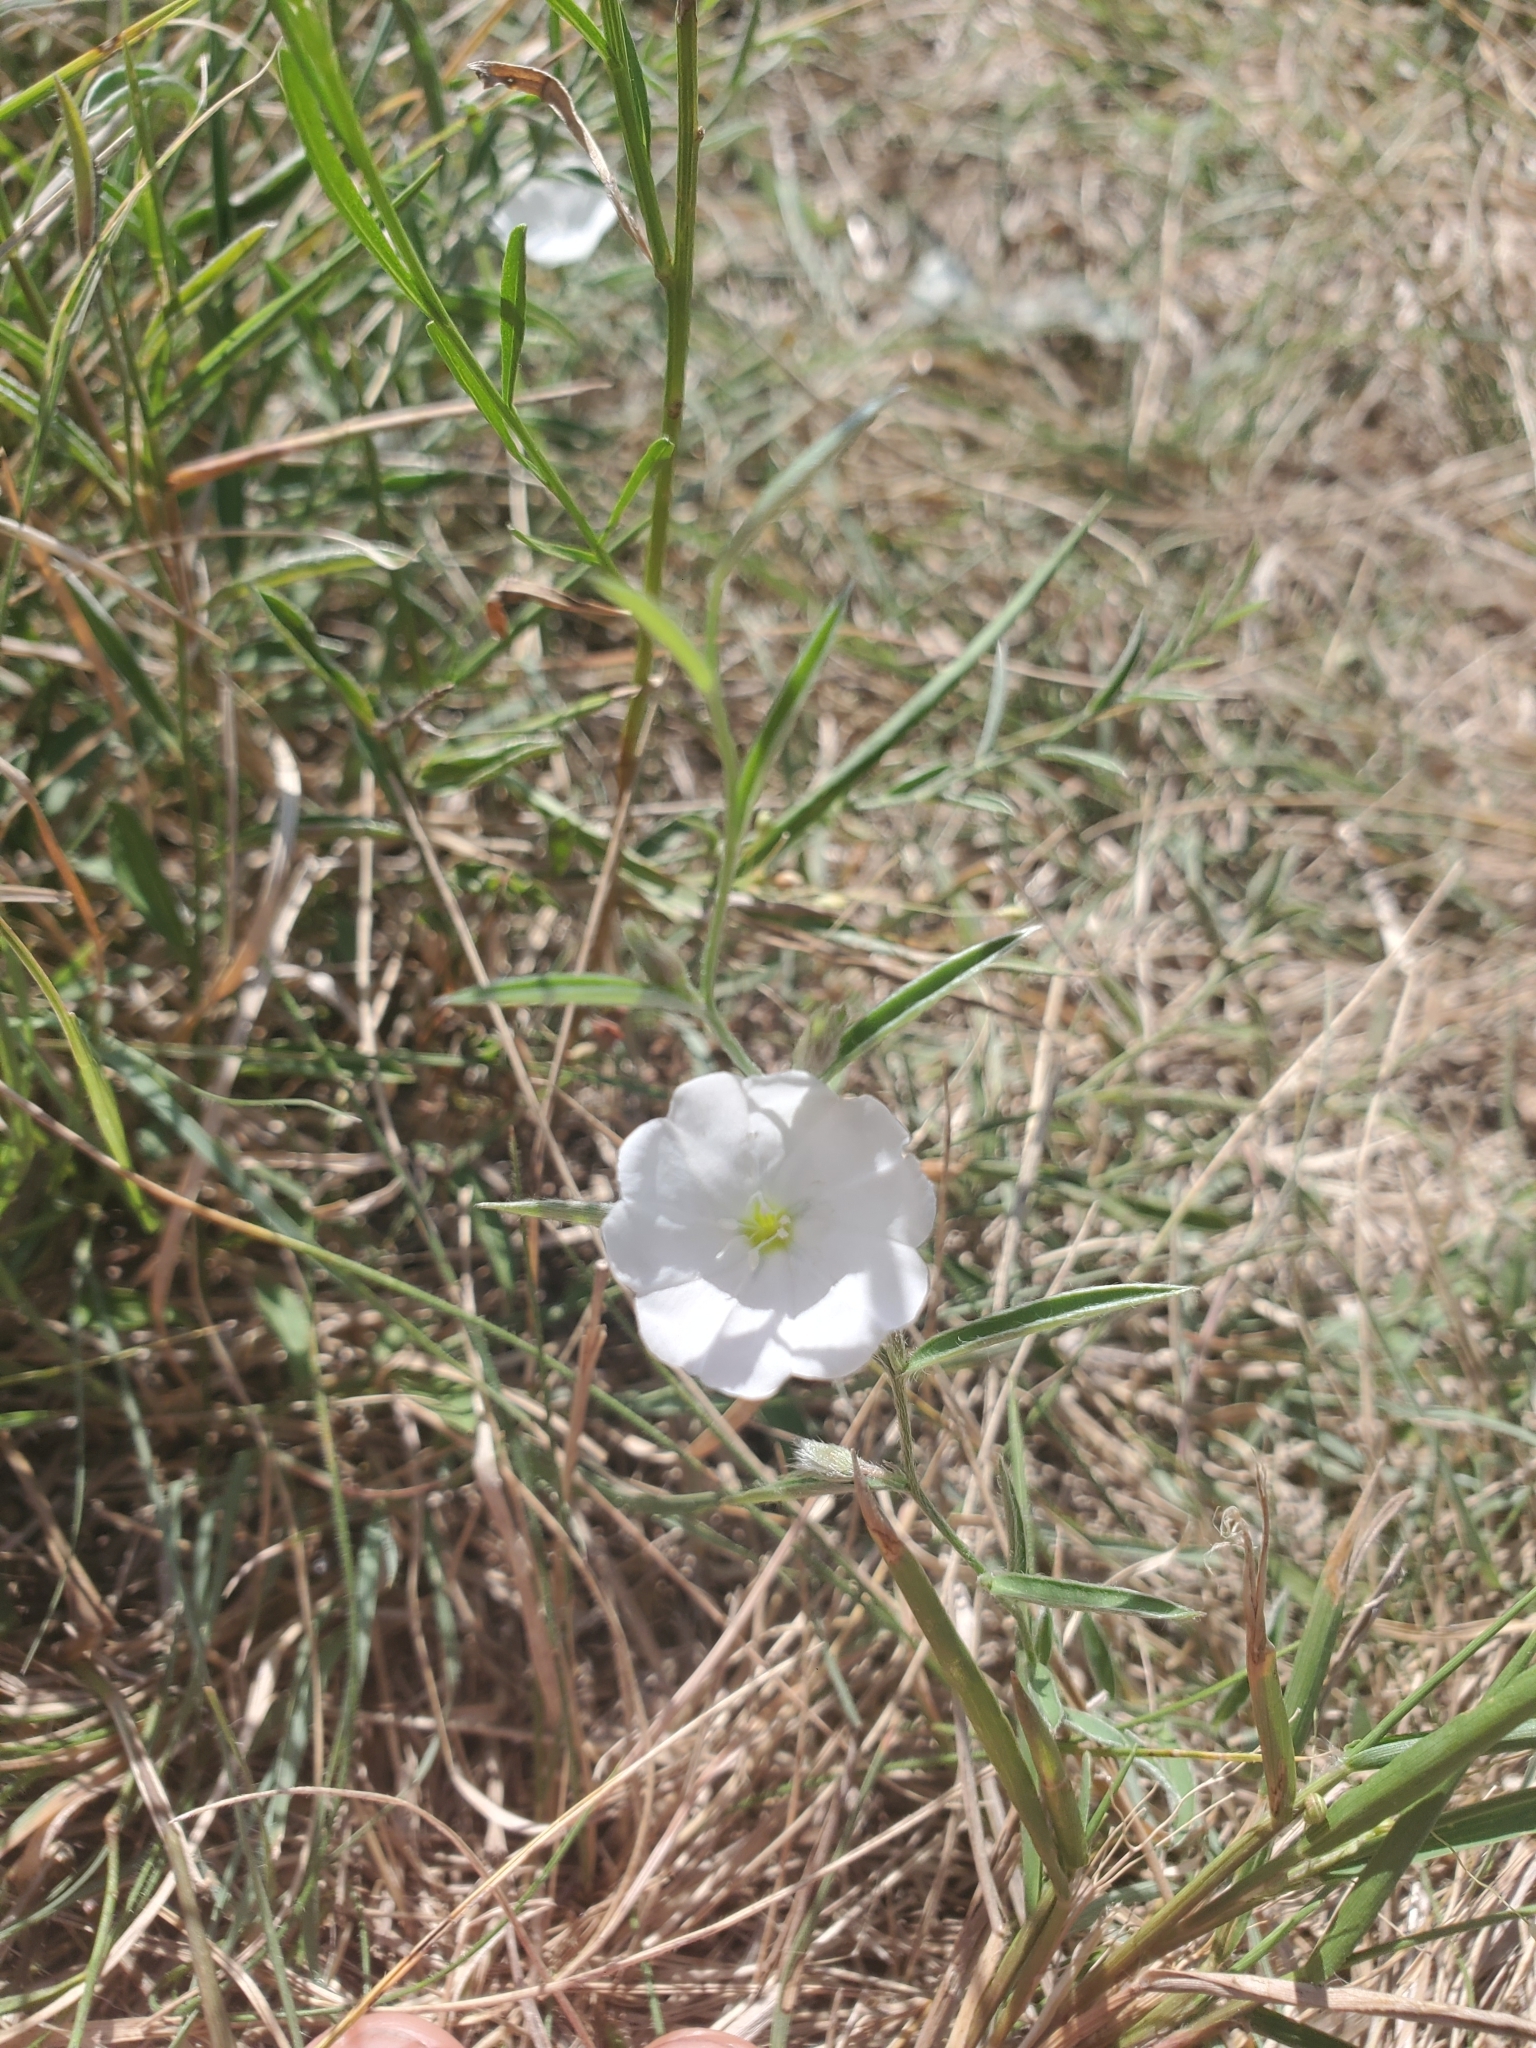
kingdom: Plantae
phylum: Tracheophyta
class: Magnoliopsida
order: Solanales
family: Convolvulaceae
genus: Evolvulus
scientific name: Evolvulus sericeus
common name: Blue dots
